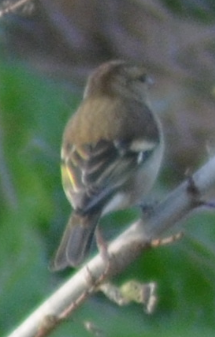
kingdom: Animalia
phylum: Chordata
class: Aves
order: Passeriformes
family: Fringillidae
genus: Fringilla
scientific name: Fringilla coelebs
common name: Common chaffinch
